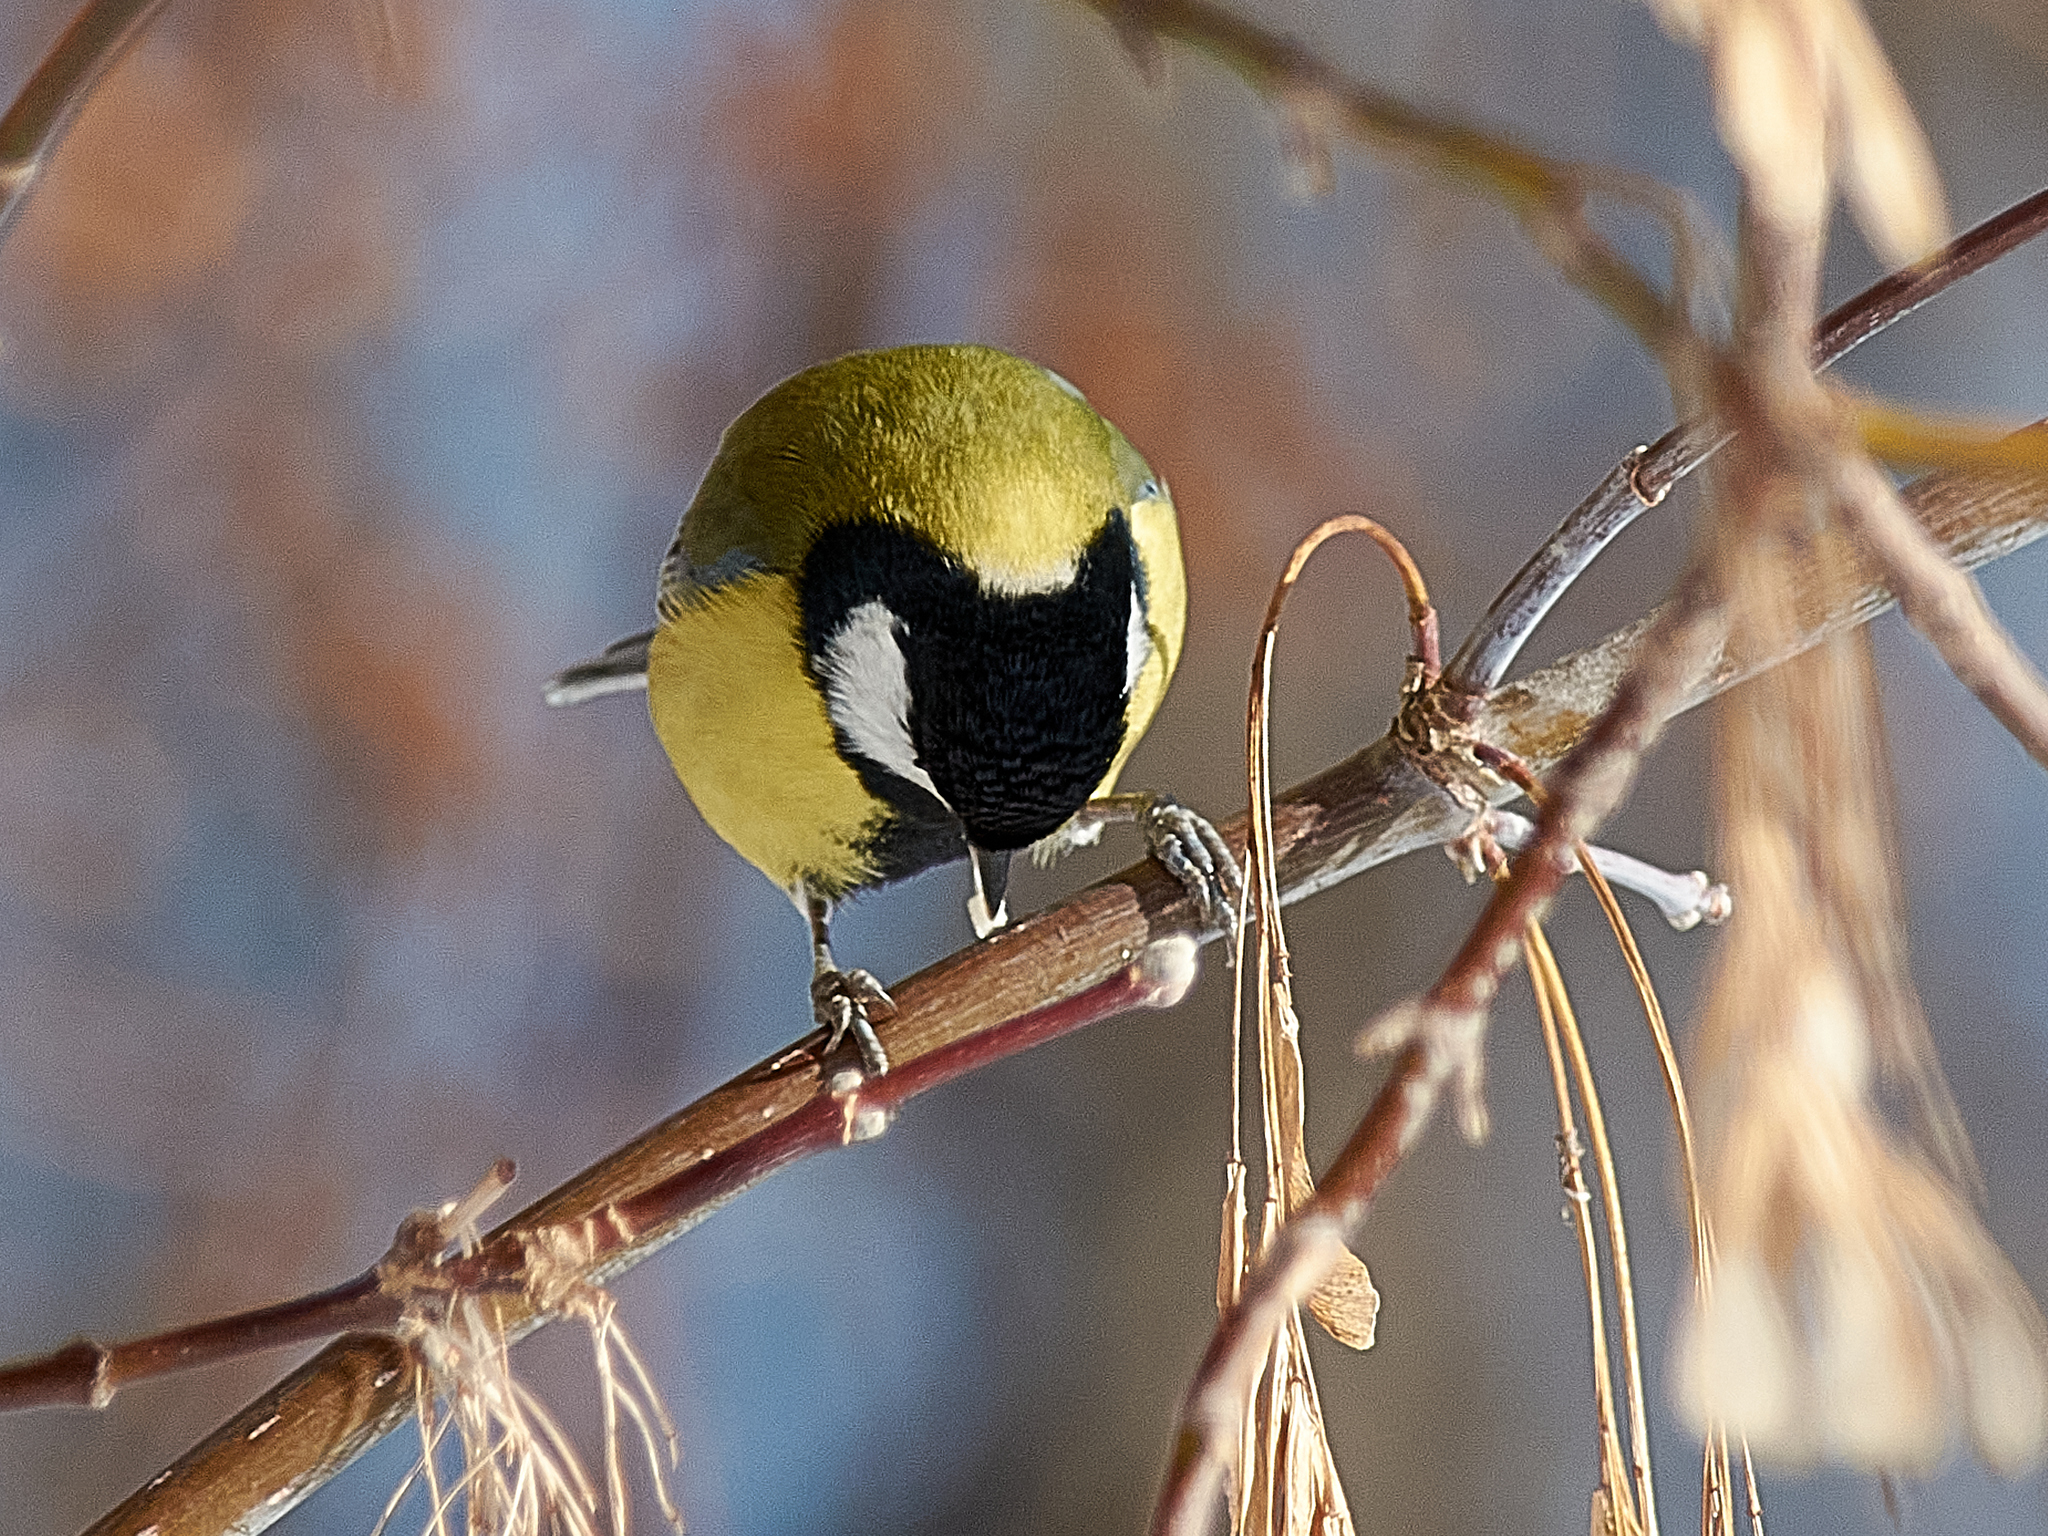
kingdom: Animalia
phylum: Chordata
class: Aves
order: Passeriformes
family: Paridae
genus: Parus
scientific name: Parus major
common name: Great tit
